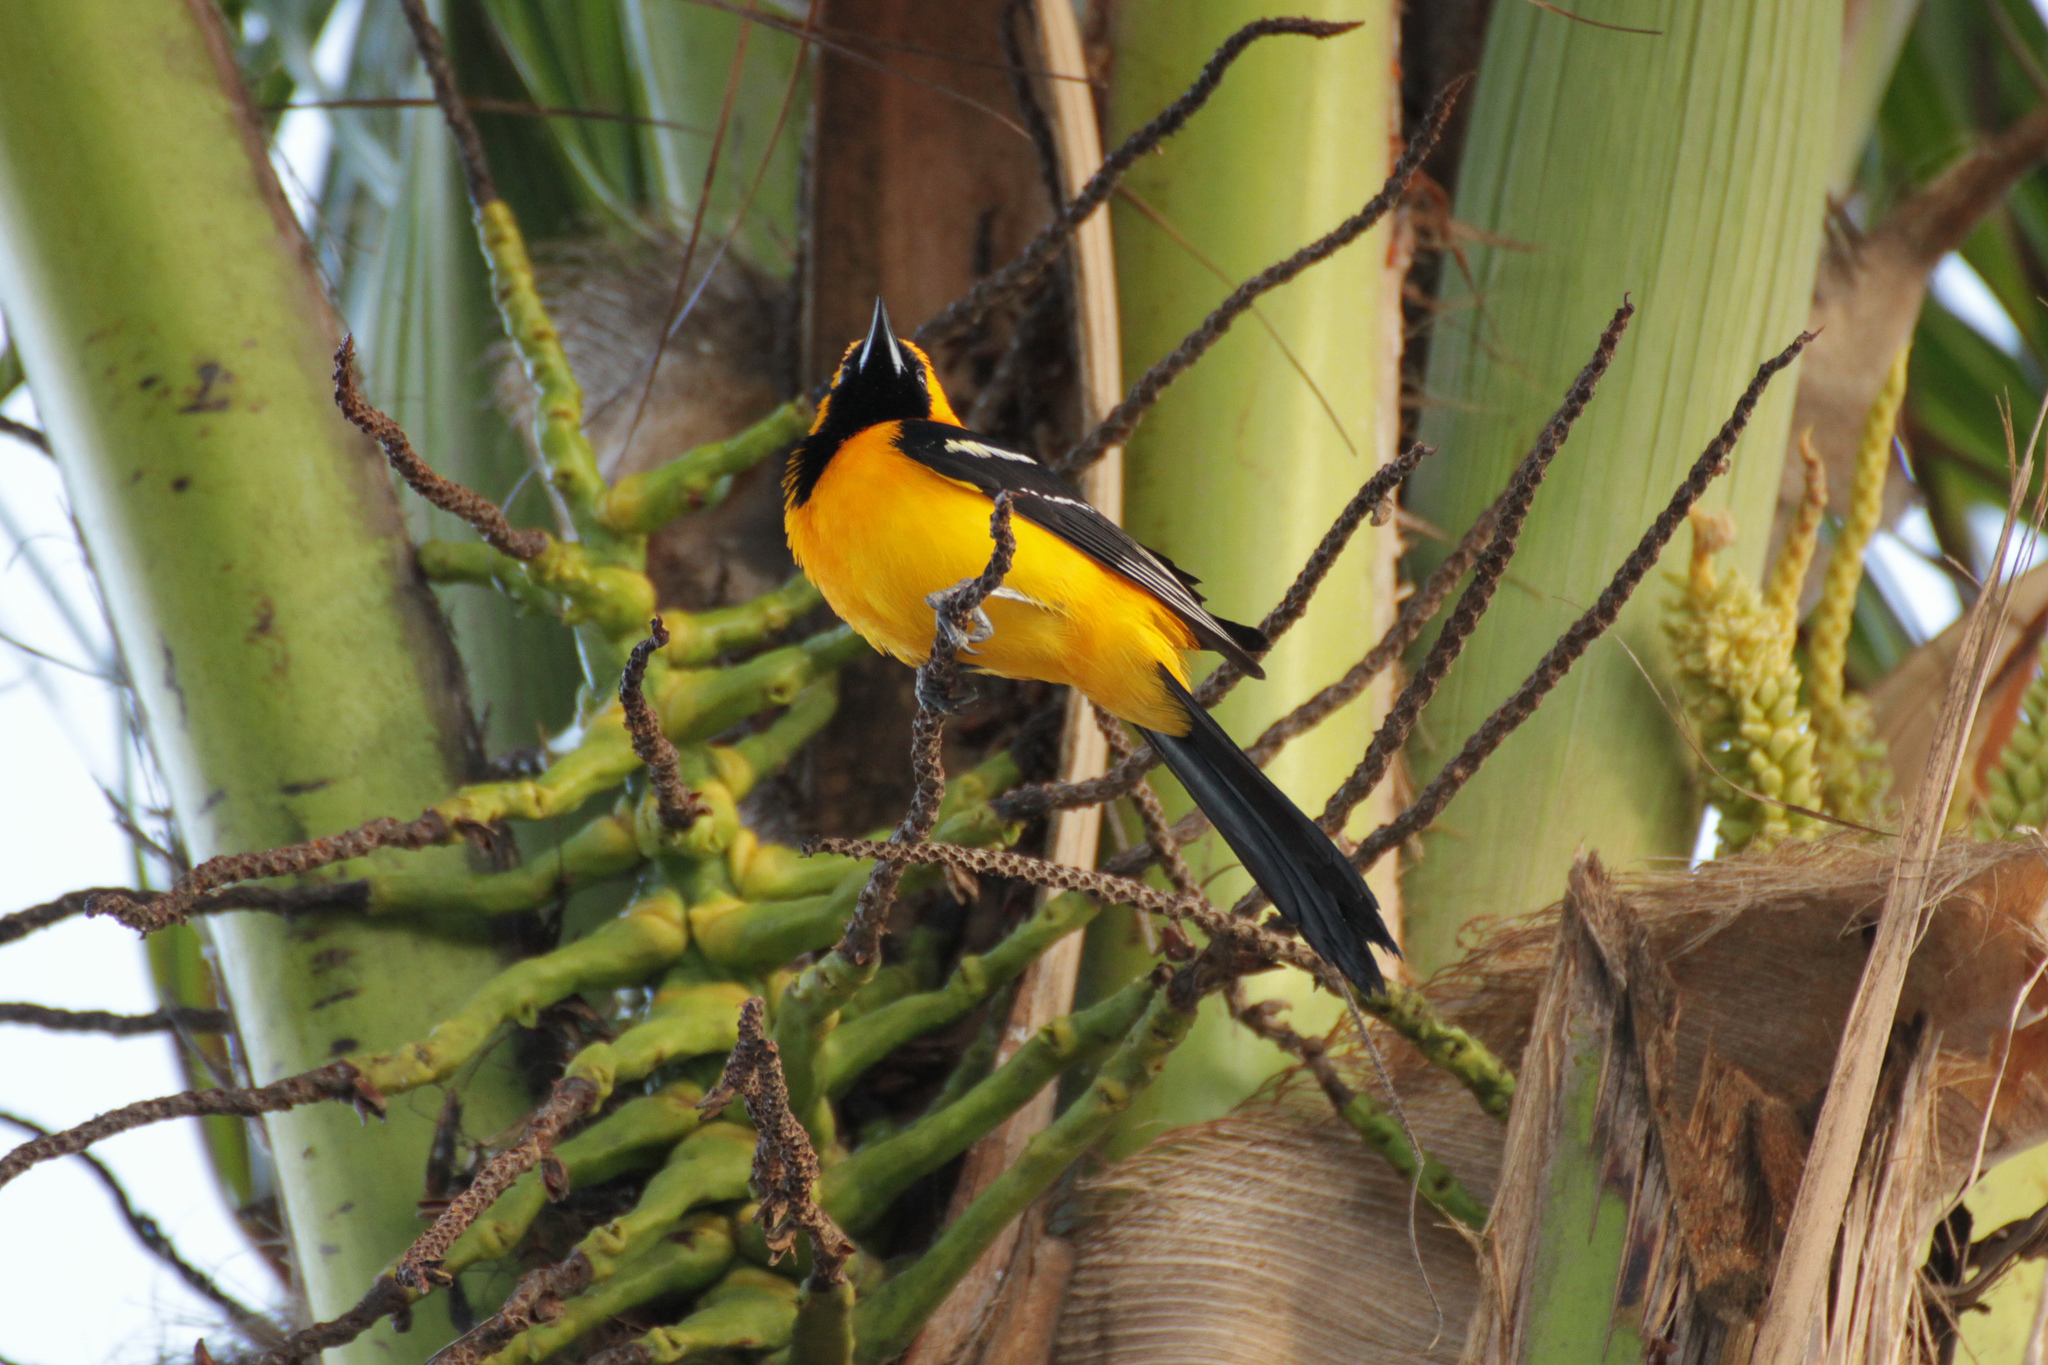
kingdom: Animalia
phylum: Chordata
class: Aves
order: Passeriformes
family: Icteridae
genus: Icterus
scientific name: Icterus cucullatus
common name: Hooded oriole
